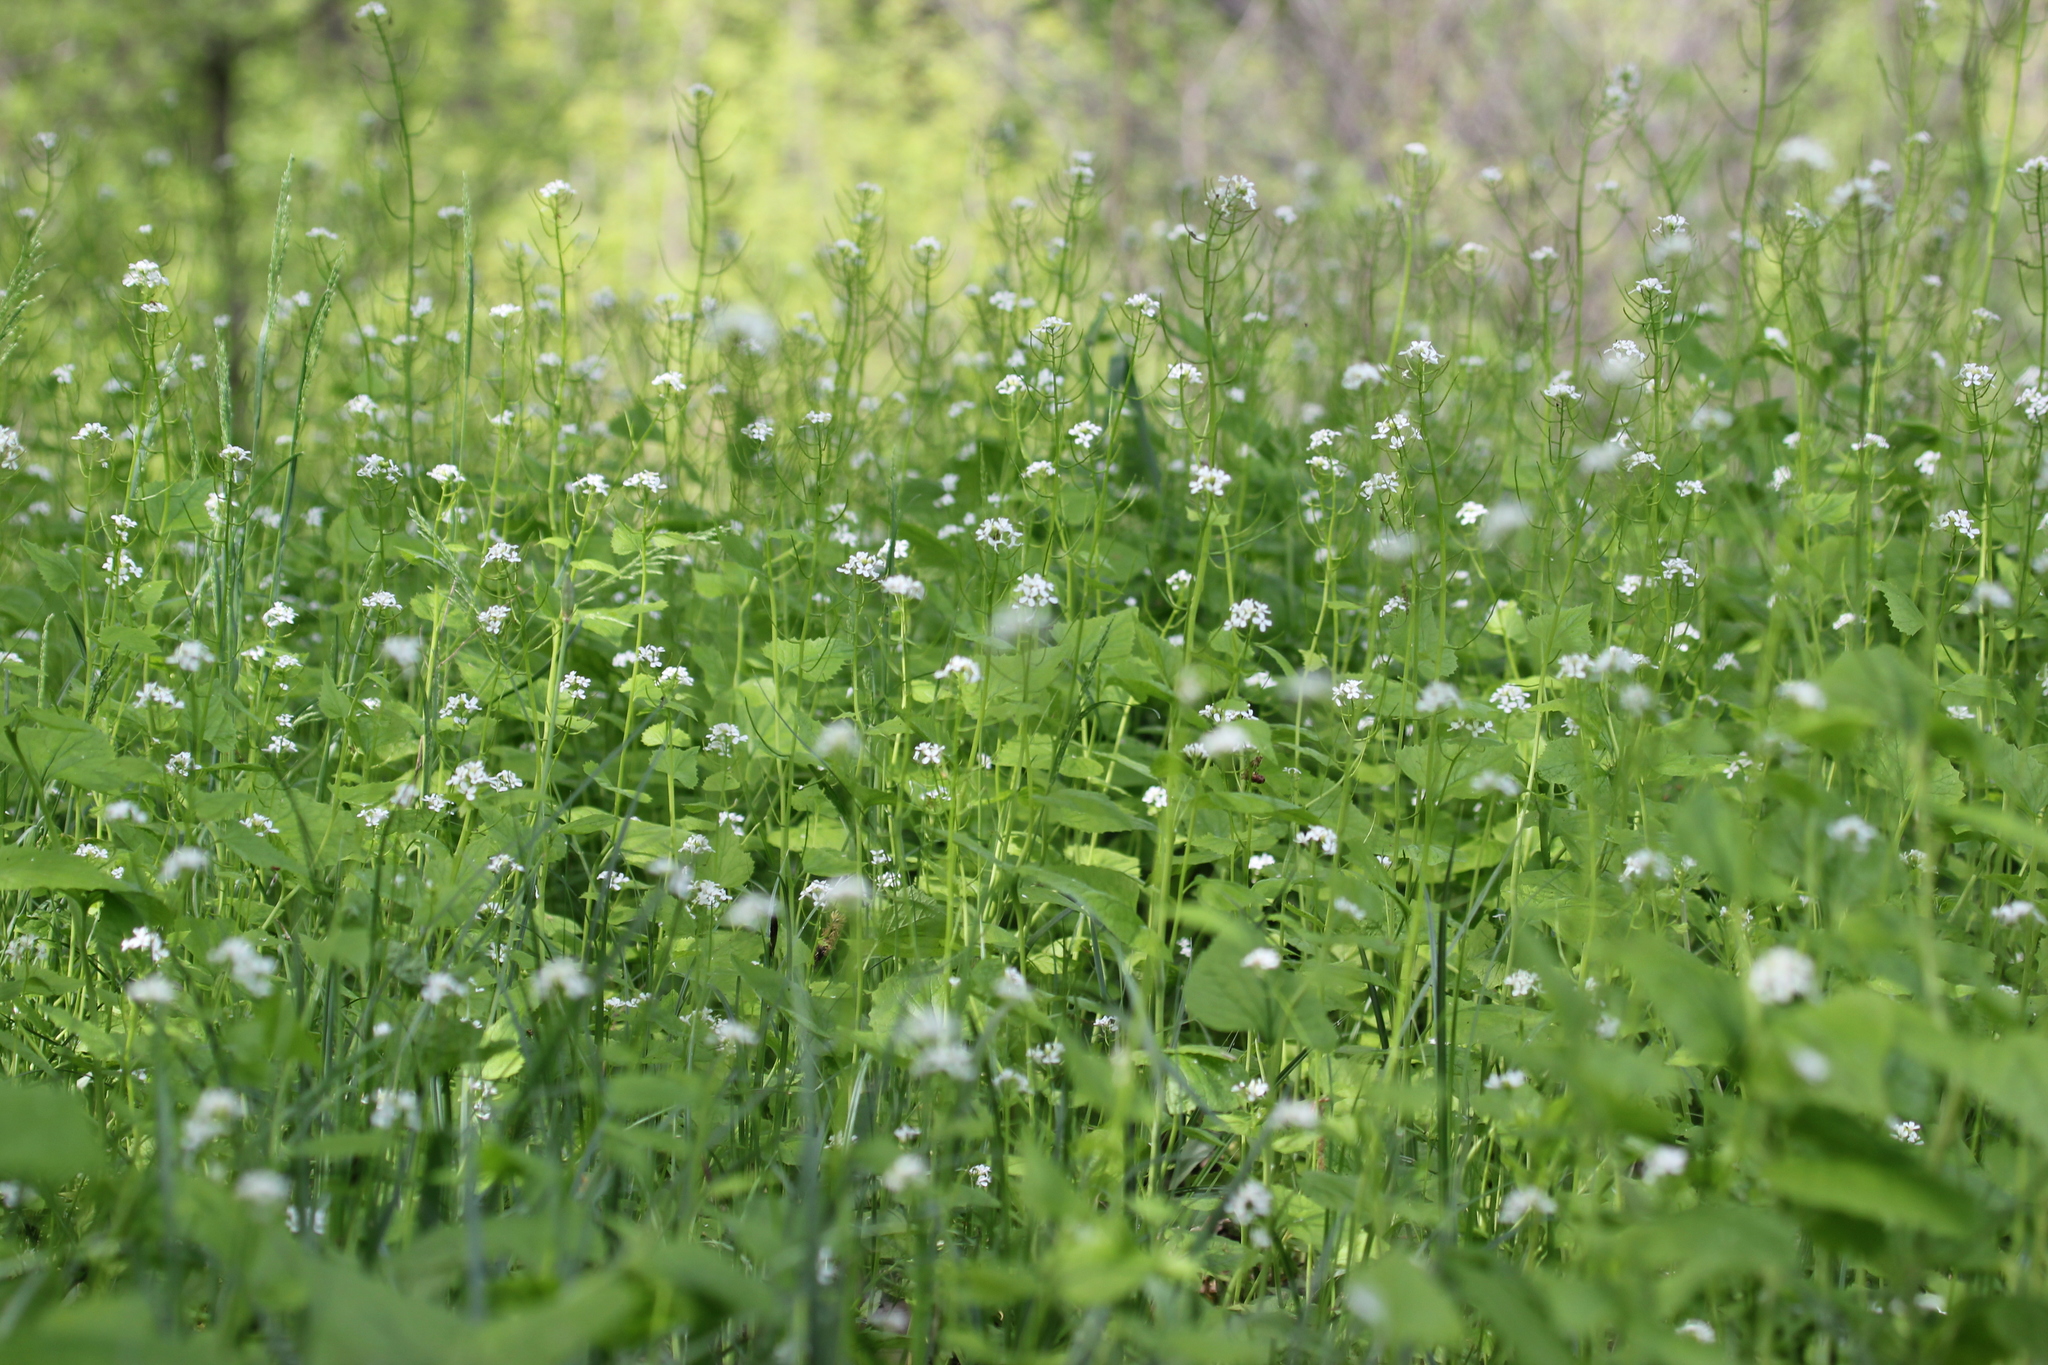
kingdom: Plantae
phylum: Tracheophyta
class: Magnoliopsida
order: Brassicales
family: Brassicaceae
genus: Alliaria
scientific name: Alliaria petiolata
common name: Garlic mustard
